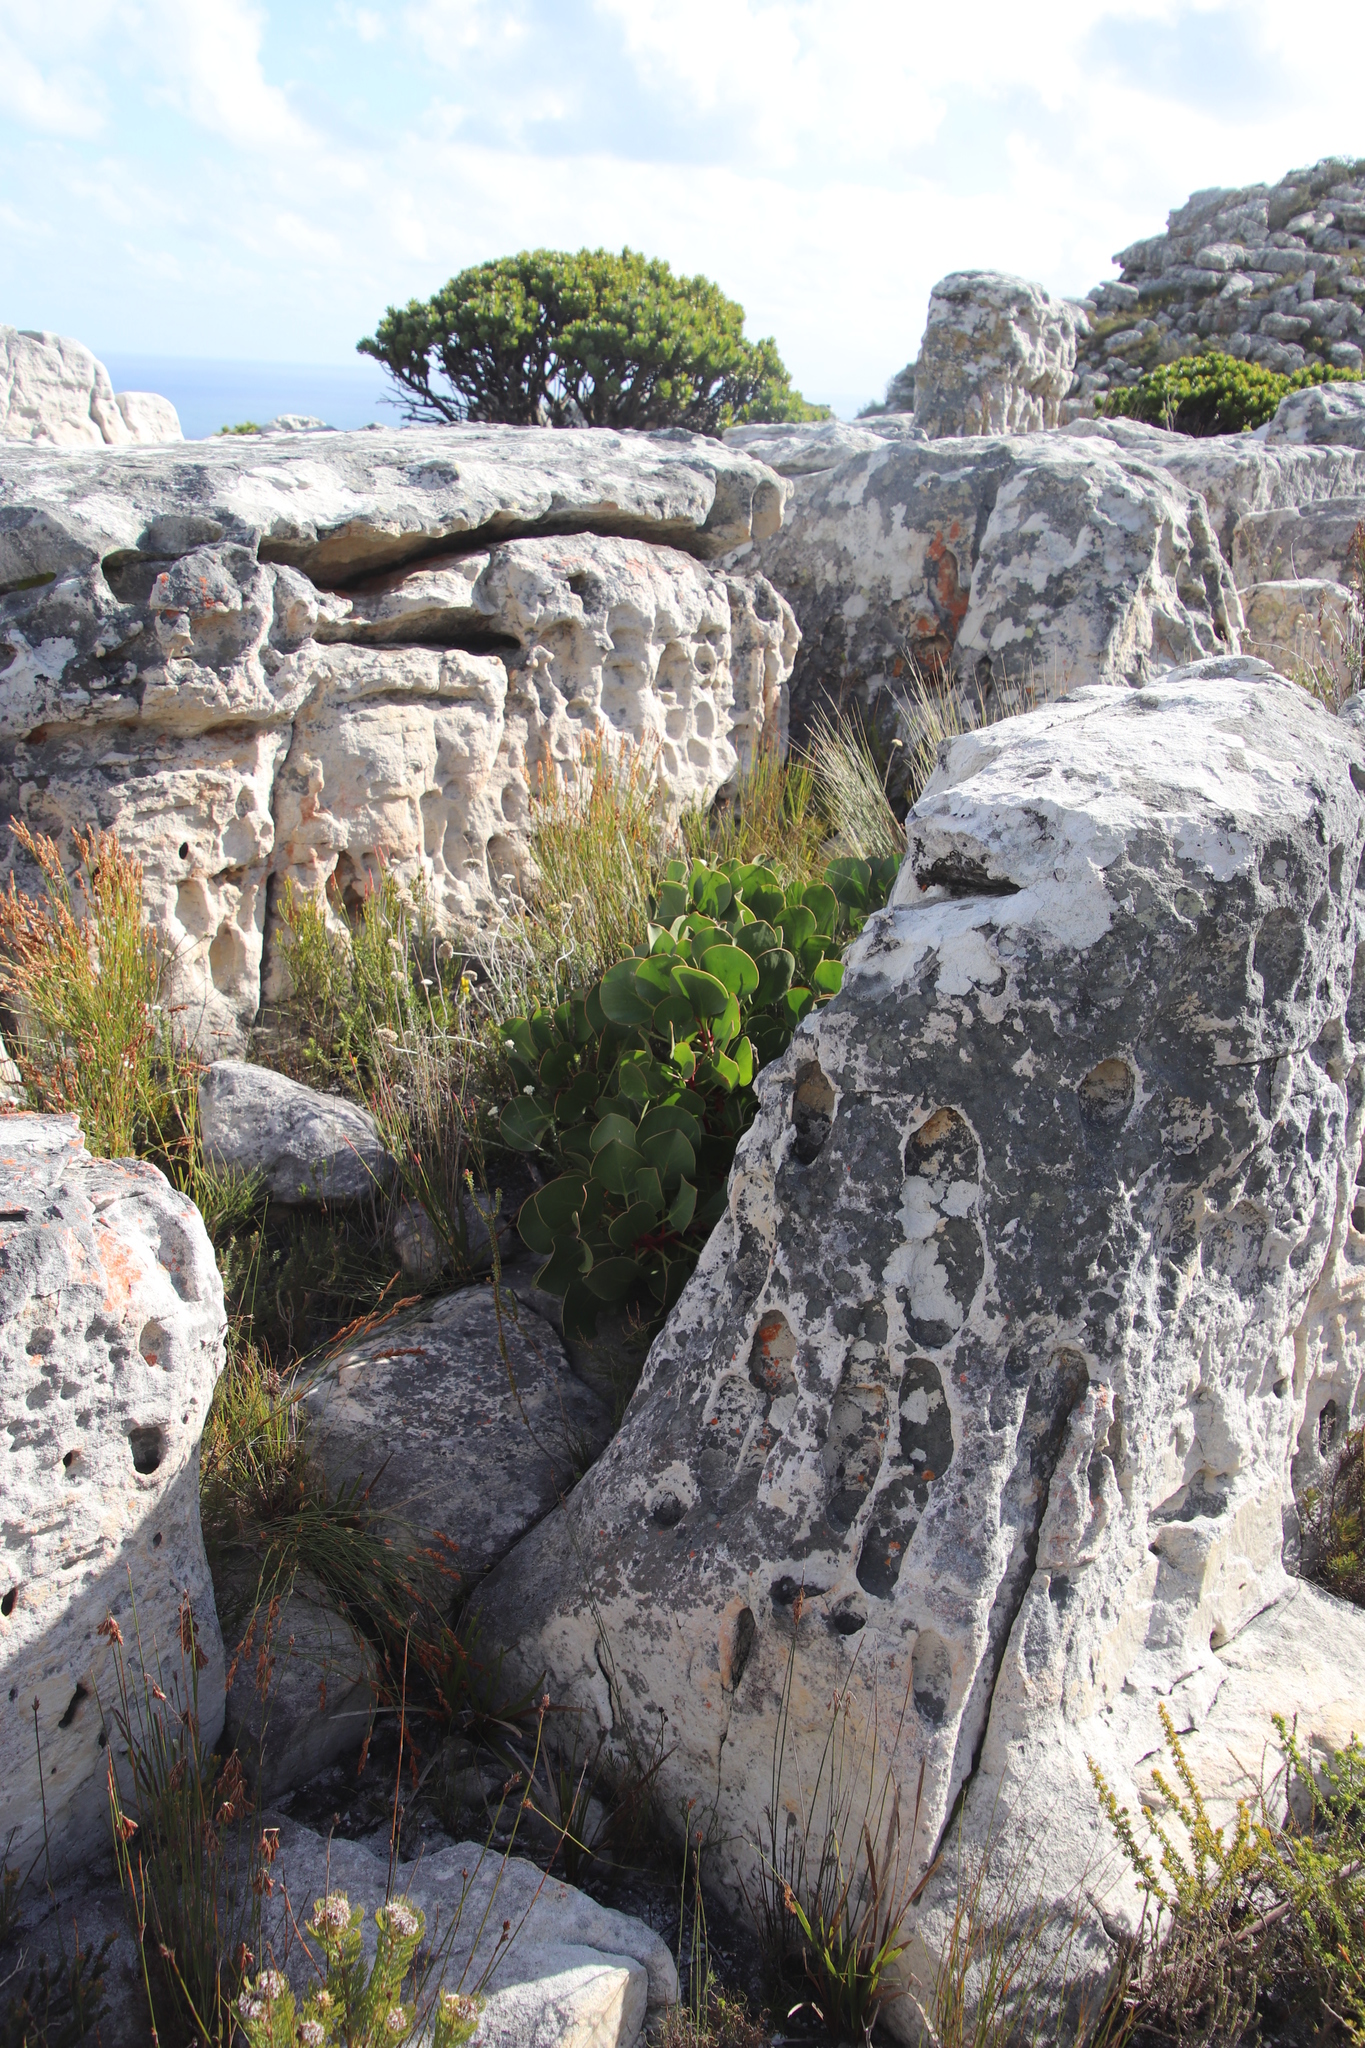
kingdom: Plantae
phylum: Tracheophyta
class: Magnoliopsida
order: Proteales
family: Proteaceae
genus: Protea
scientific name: Protea cynaroides
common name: King protea
